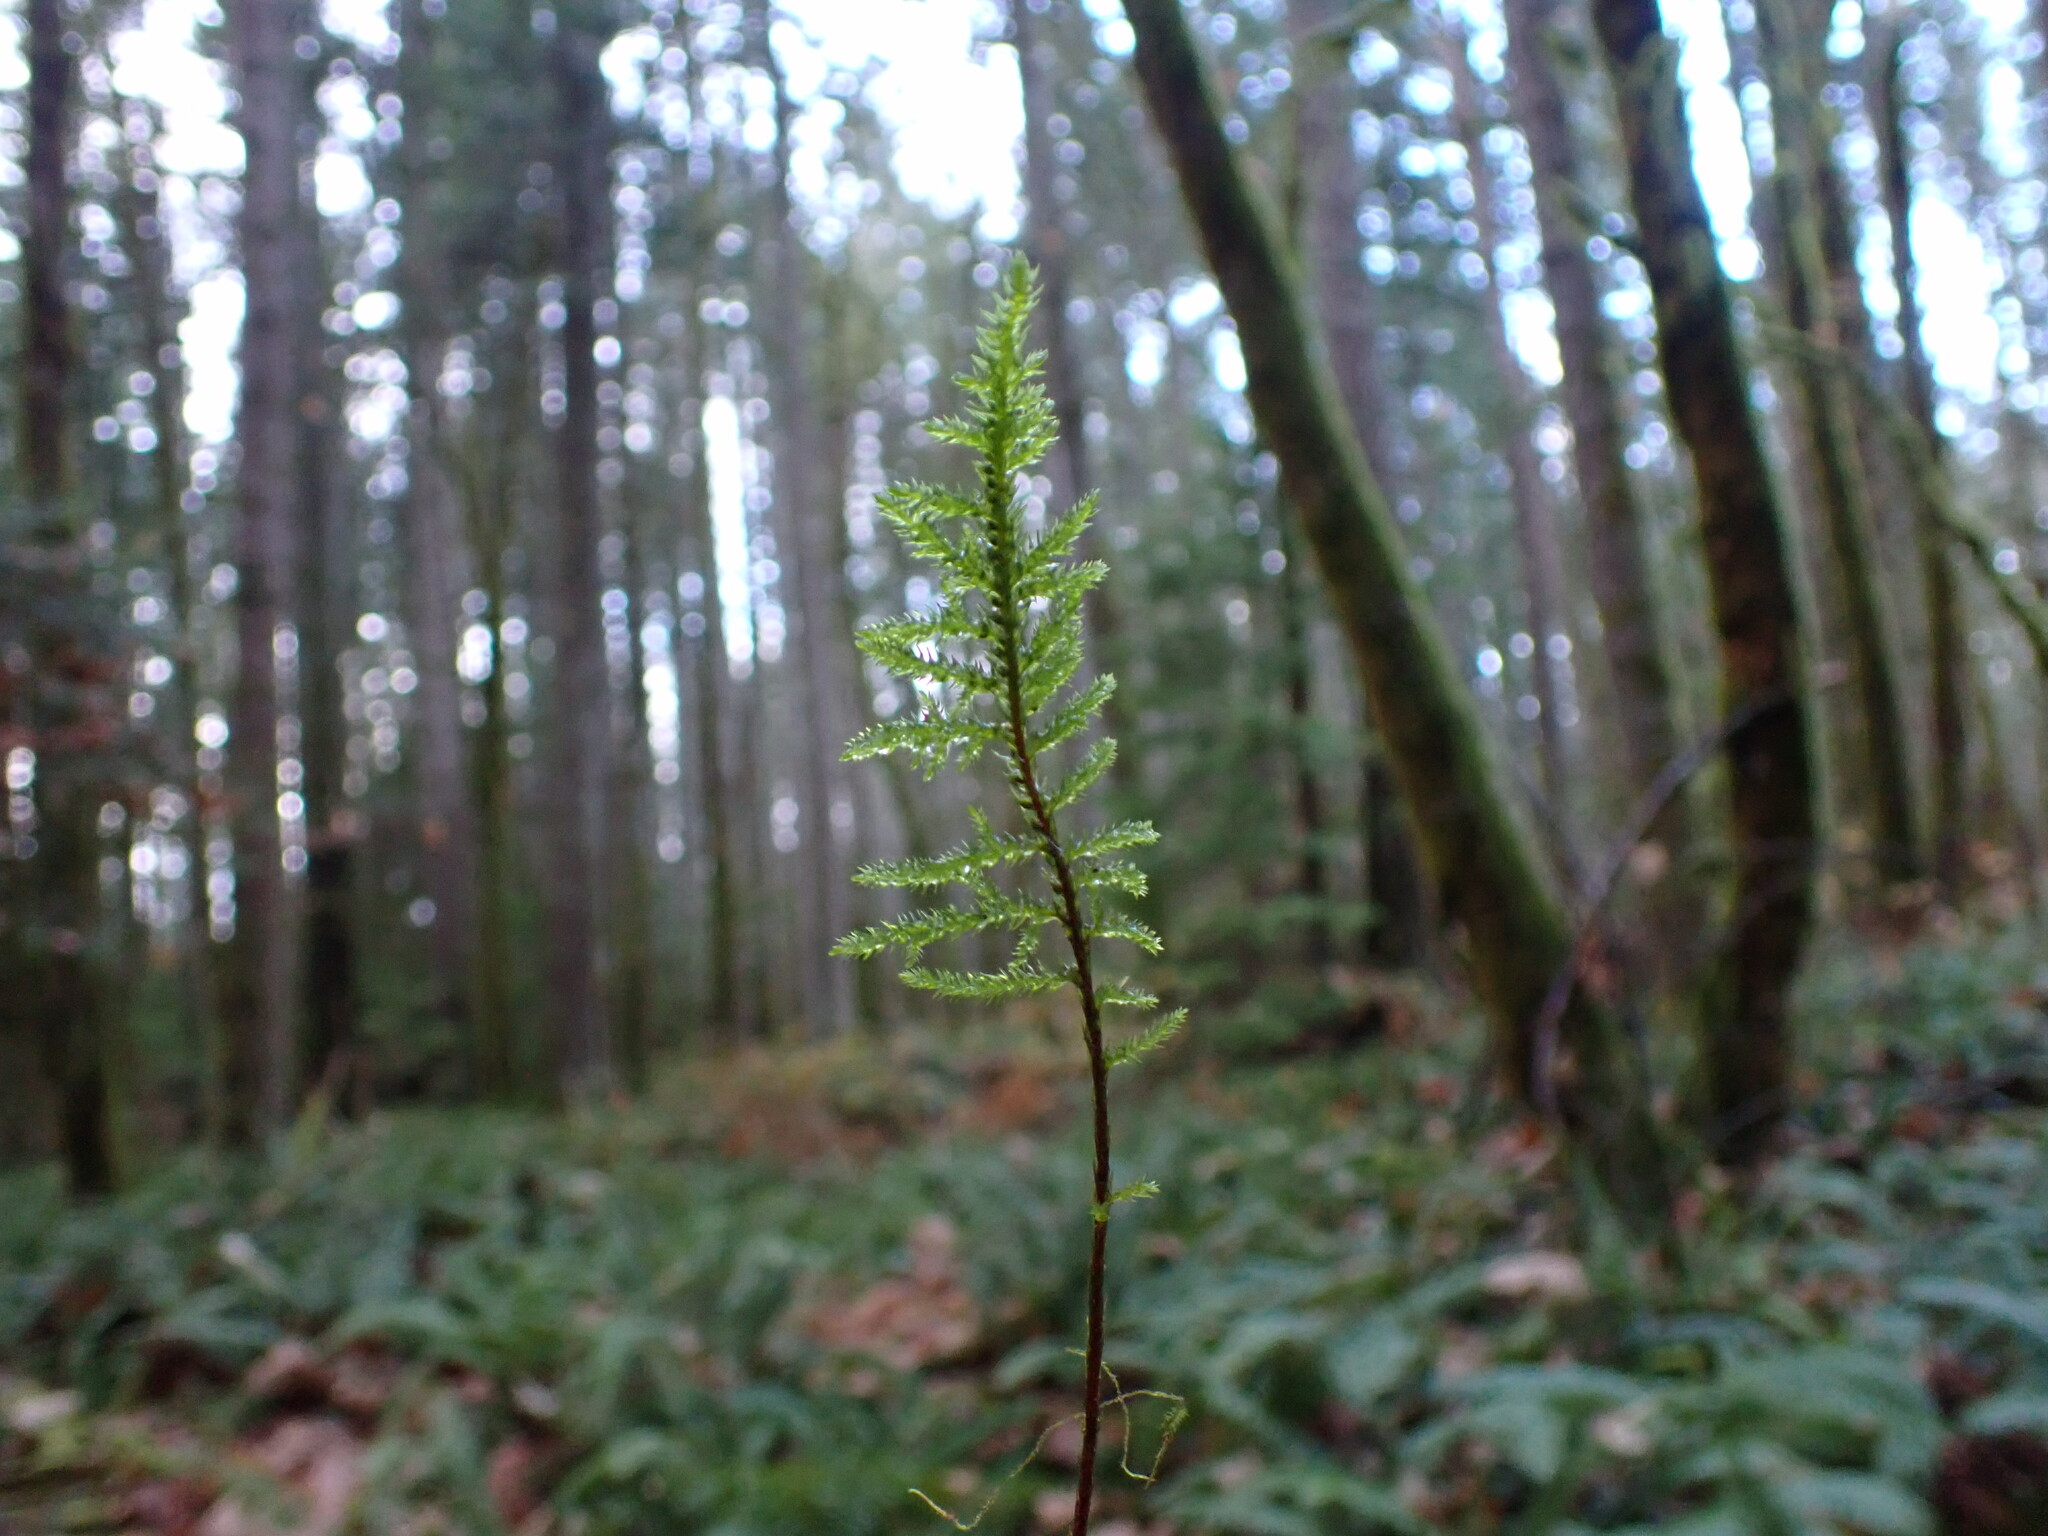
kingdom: Plantae
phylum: Bryophyta
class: Bryopsida
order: Hypnales
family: Cryphaeaceae
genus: Dendroalsia
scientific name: Dendroalsia abietina
